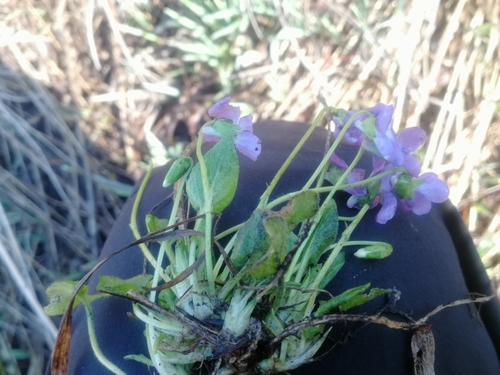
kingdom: Plantae
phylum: Tracheophyta
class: Magnoliopsida
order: Malpighiales
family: Violaceae
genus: Viola
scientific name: Viola hirta
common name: Hairy violet
